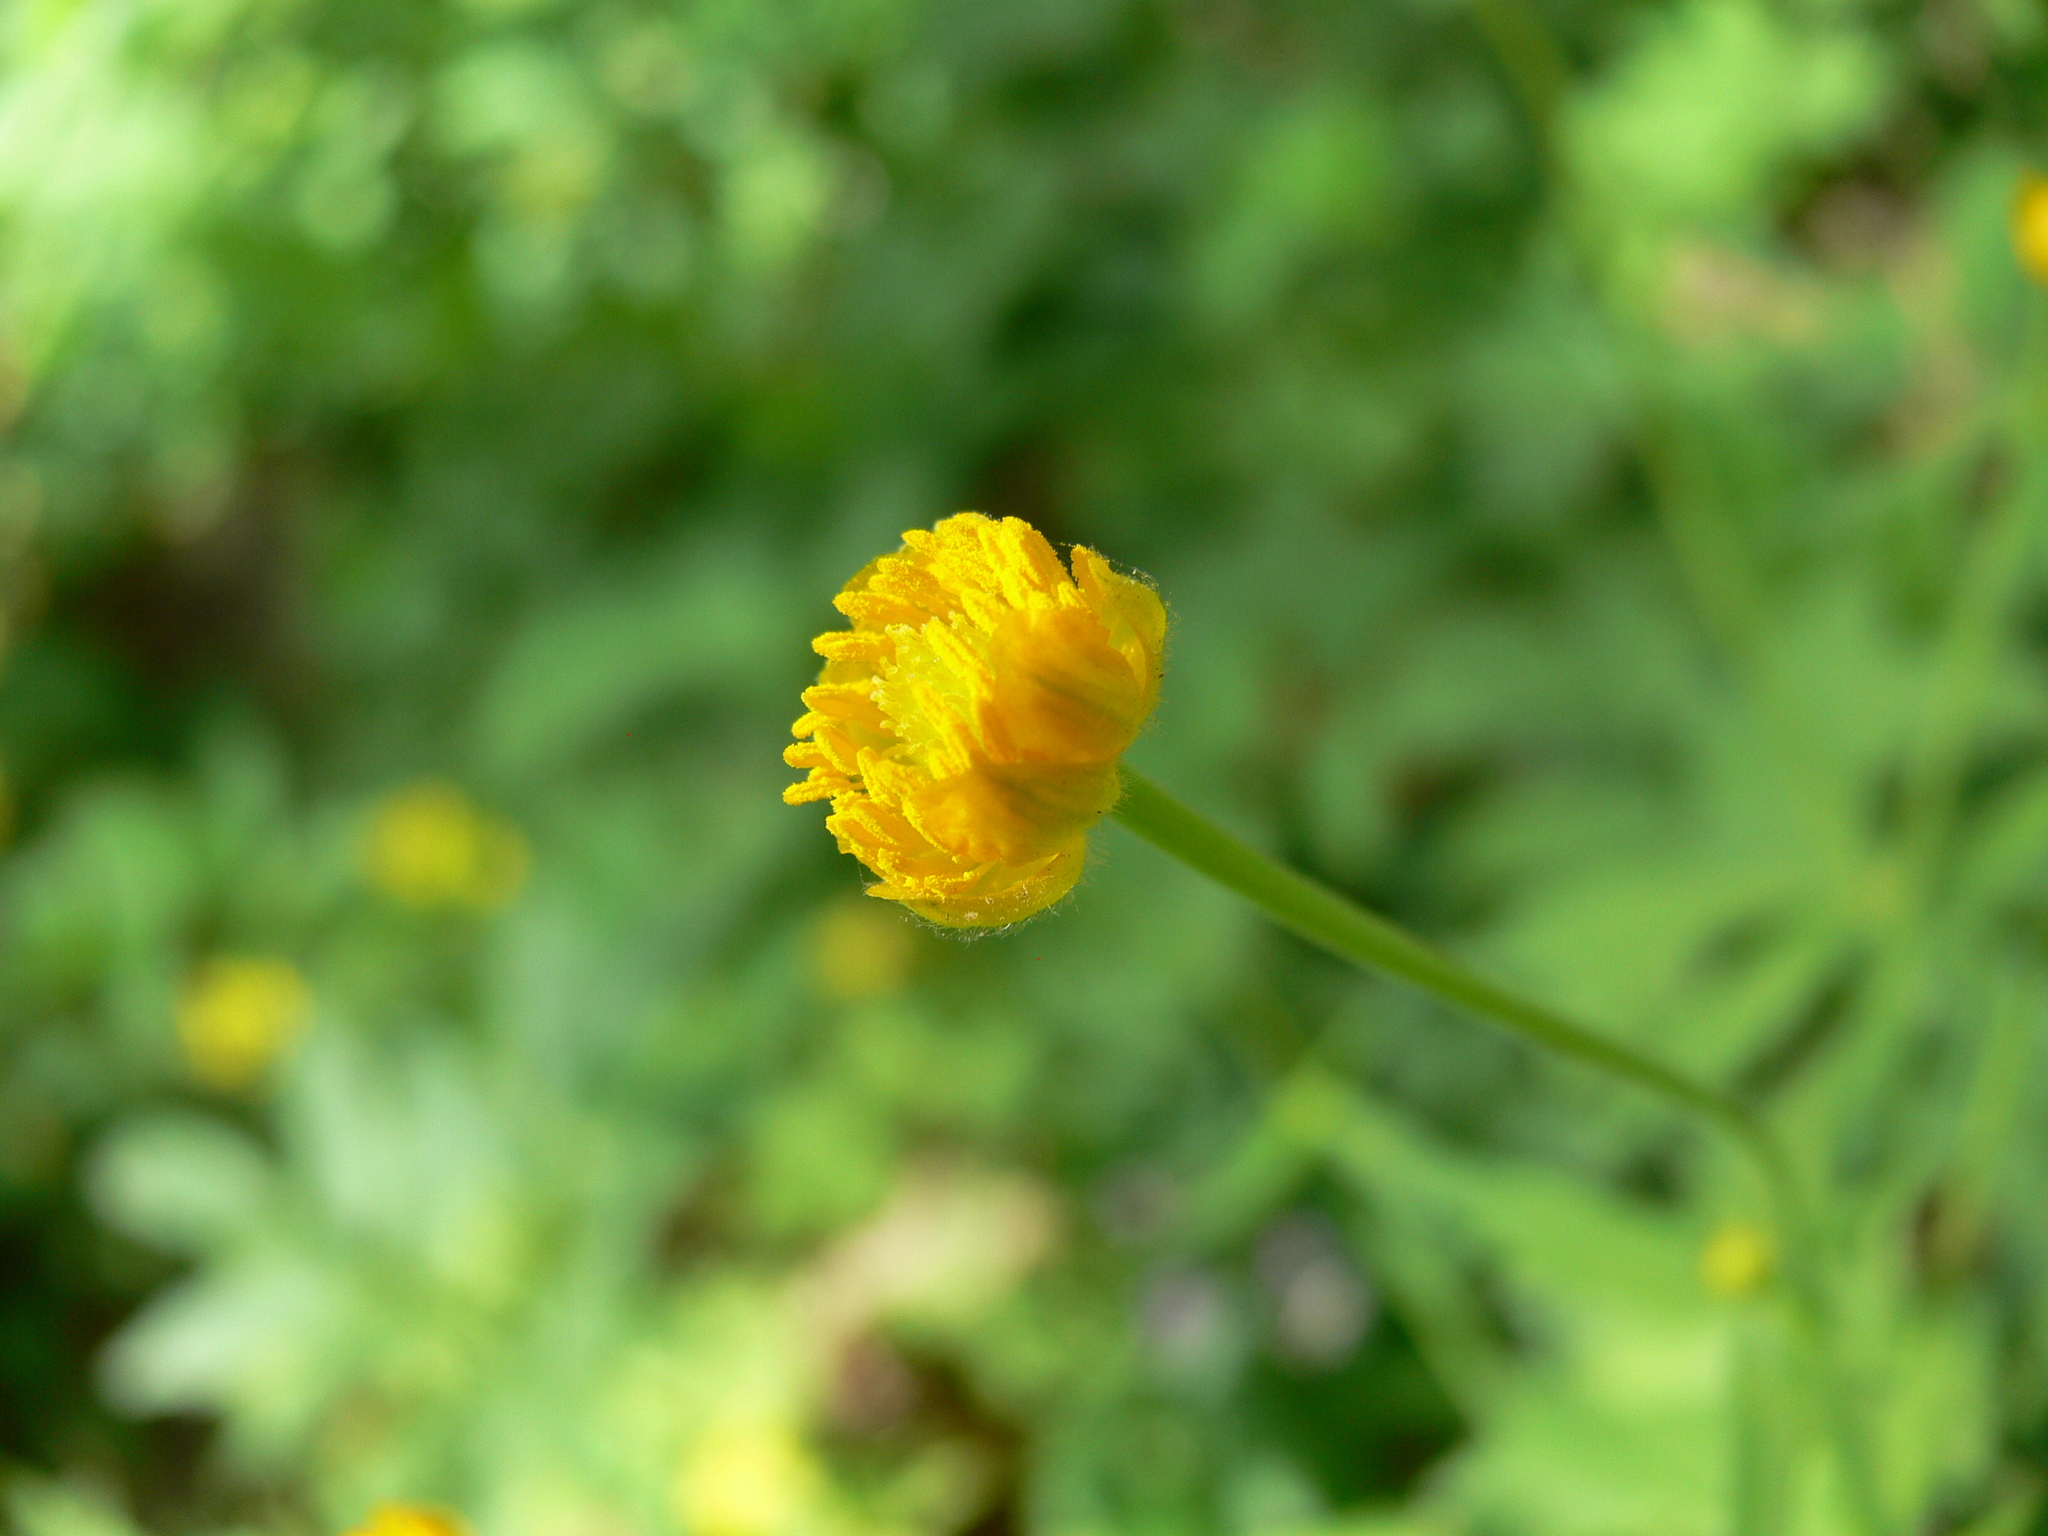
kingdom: Plantae
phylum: Tracheophyta
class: Magnoliopsida
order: Ranunculales
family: Ranunculaceae
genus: Ranunculus
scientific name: Ranunculus
